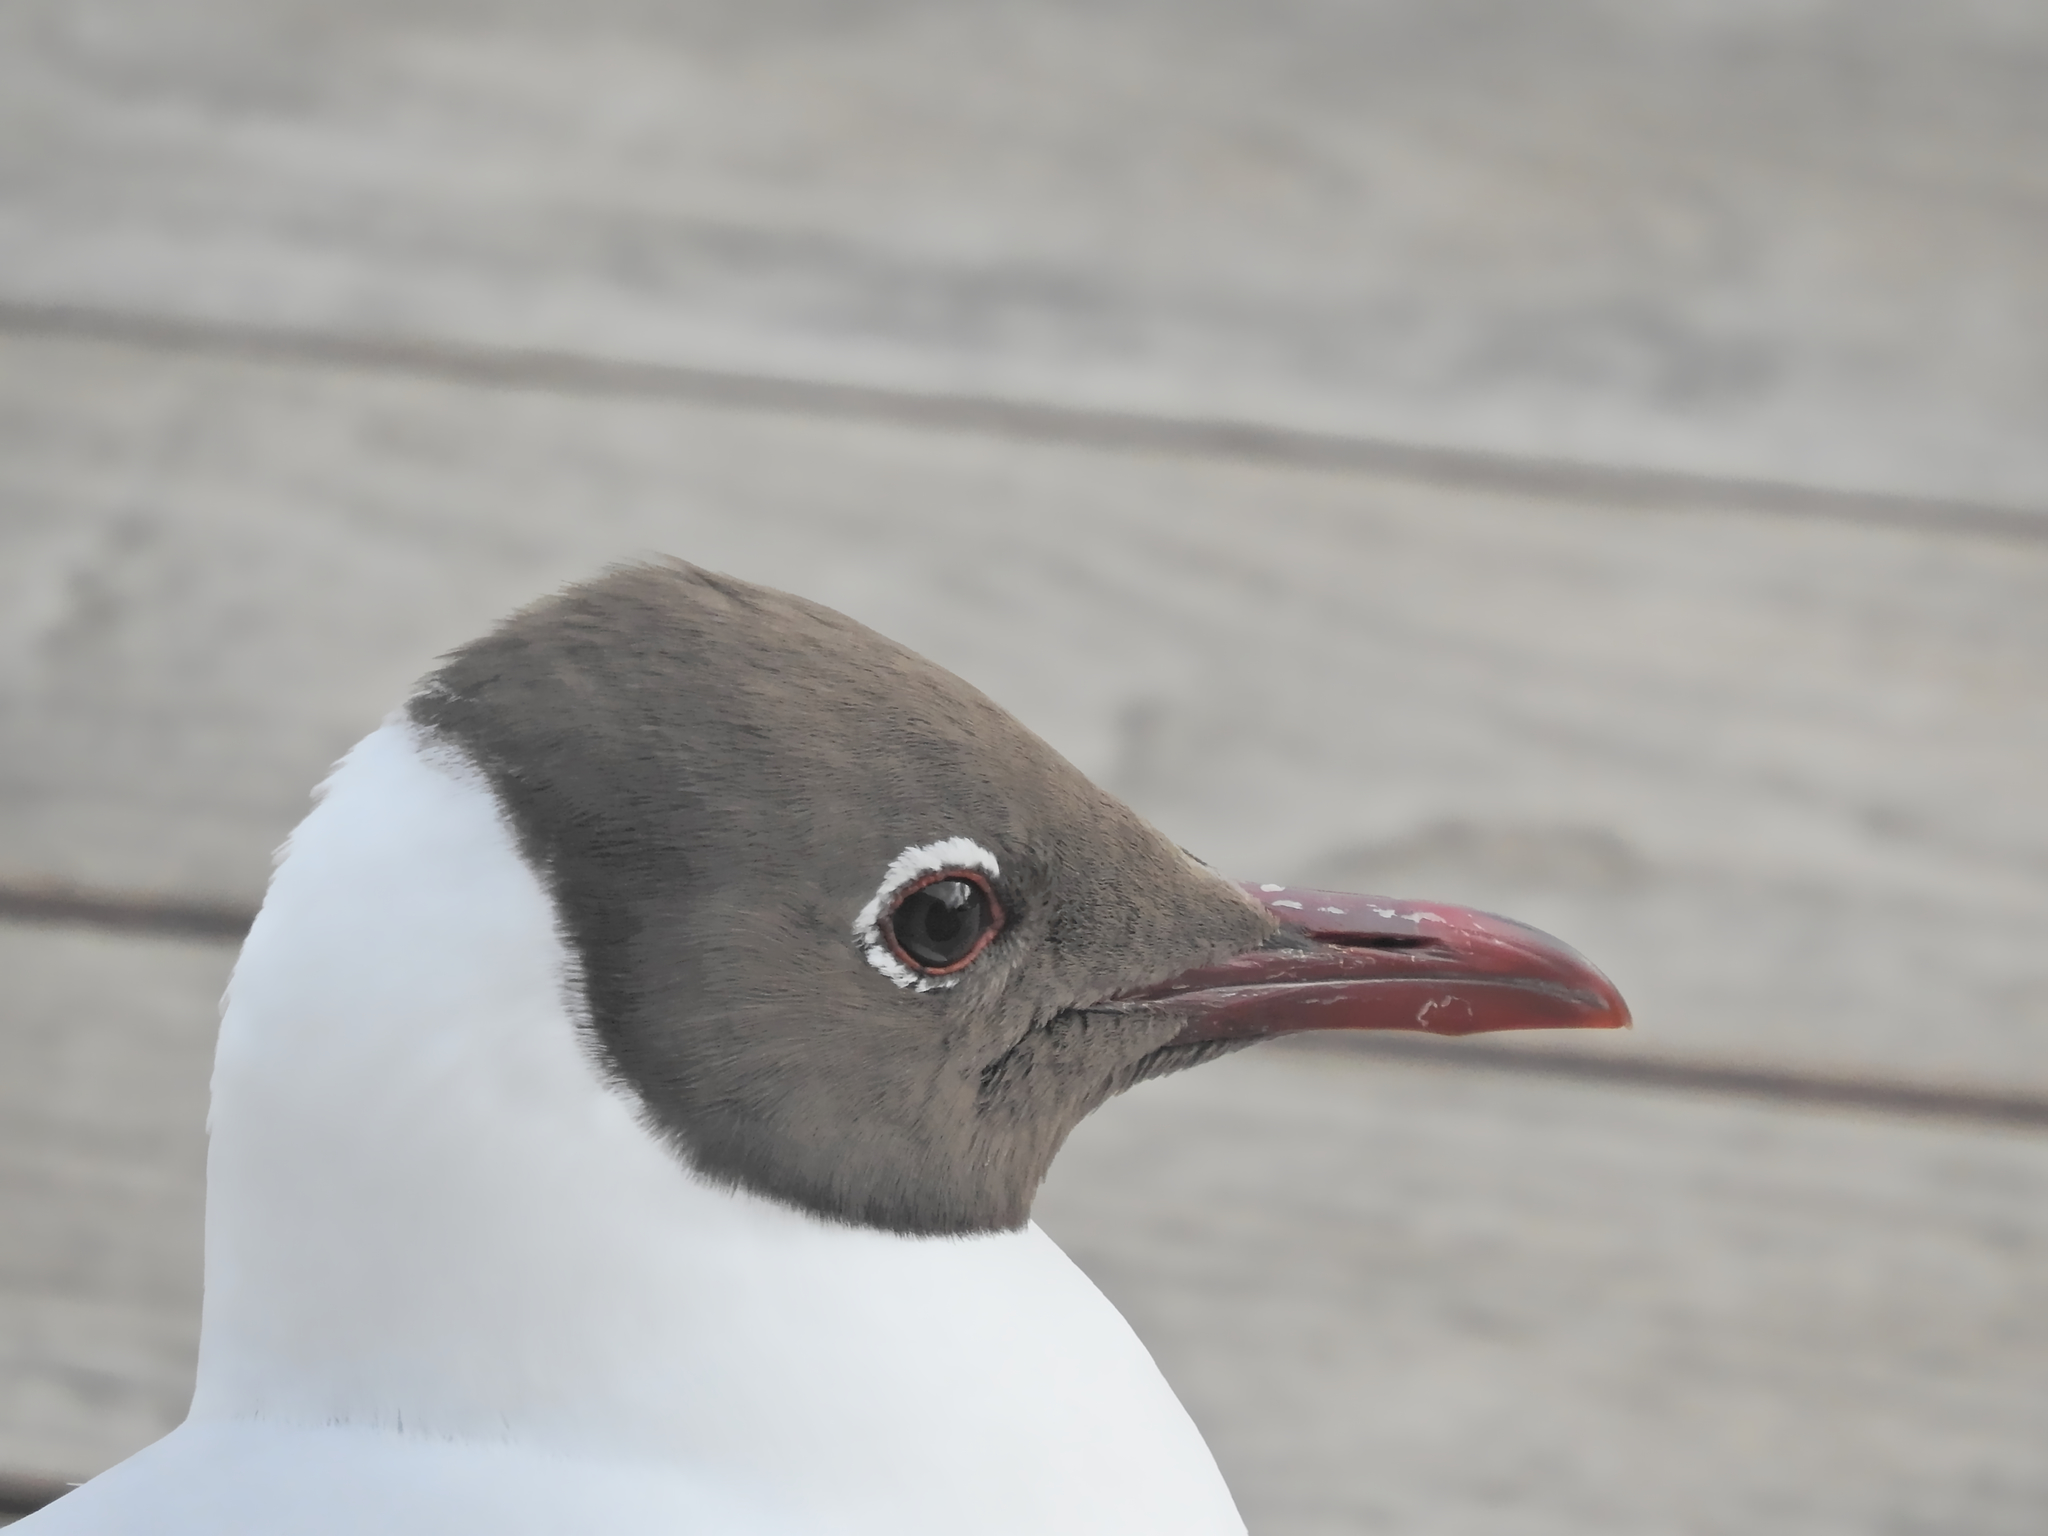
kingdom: Animalia
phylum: Chordata
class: Aves
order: Charadriiformes
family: Laridae
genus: Chroicocephalus
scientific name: Chroicocephalus ridibundus
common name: Black-headed gull
